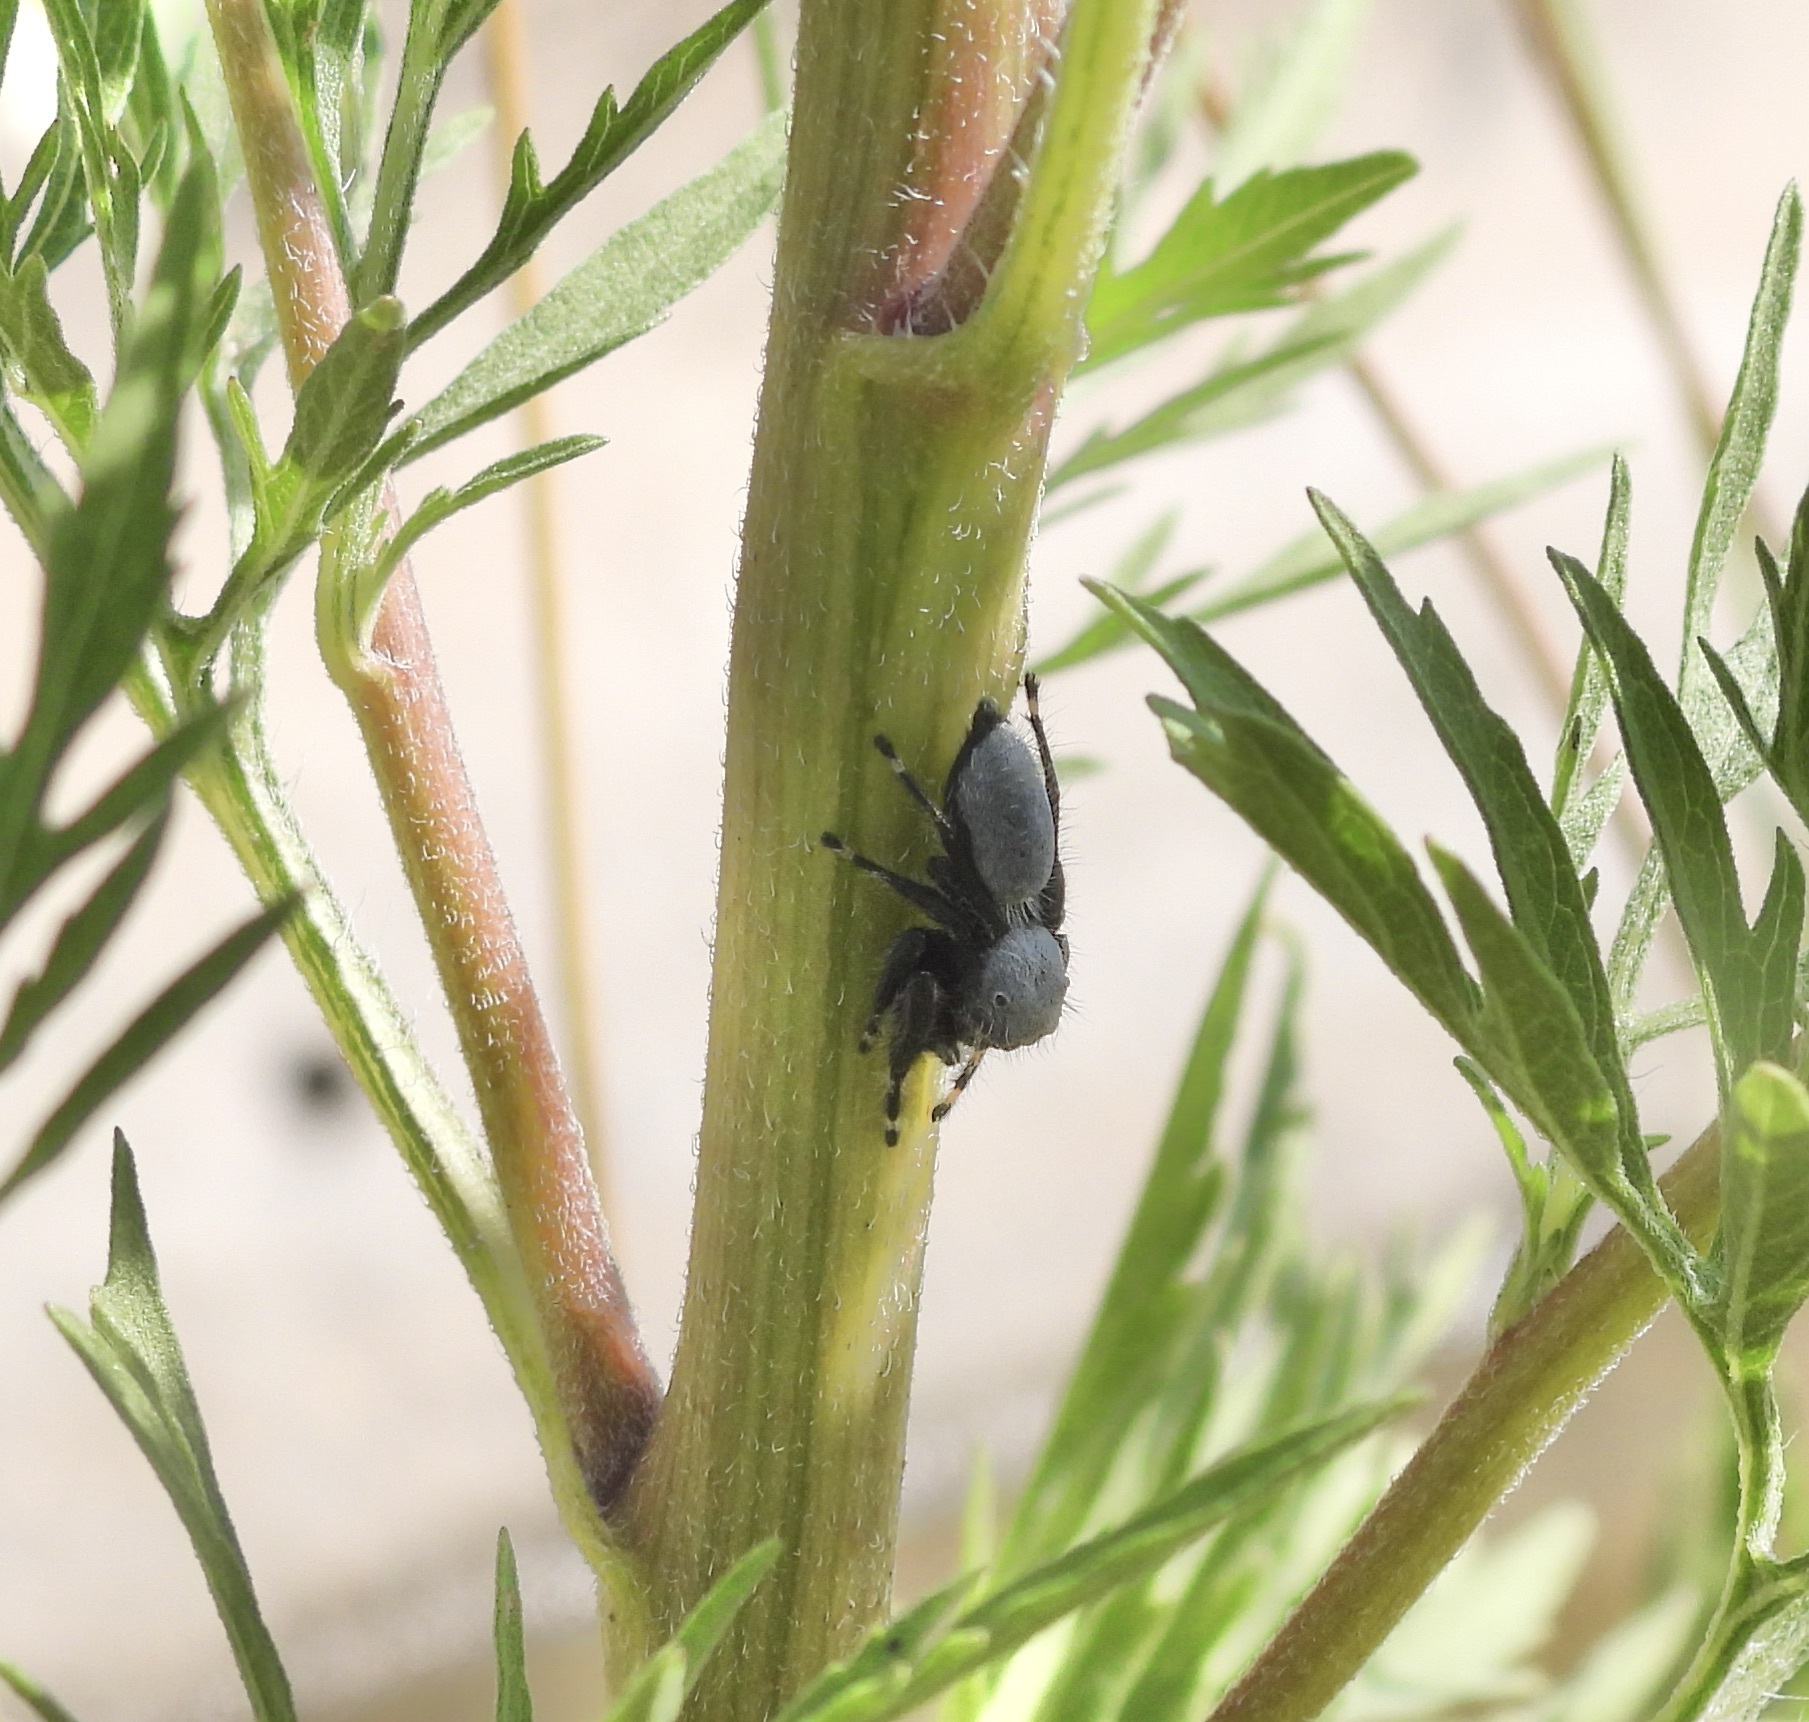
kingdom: Animalia
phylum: Arthropoda
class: Arachnida
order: Araneae
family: Salticidae
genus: Phidippus
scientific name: Phidippus octopunctatus
